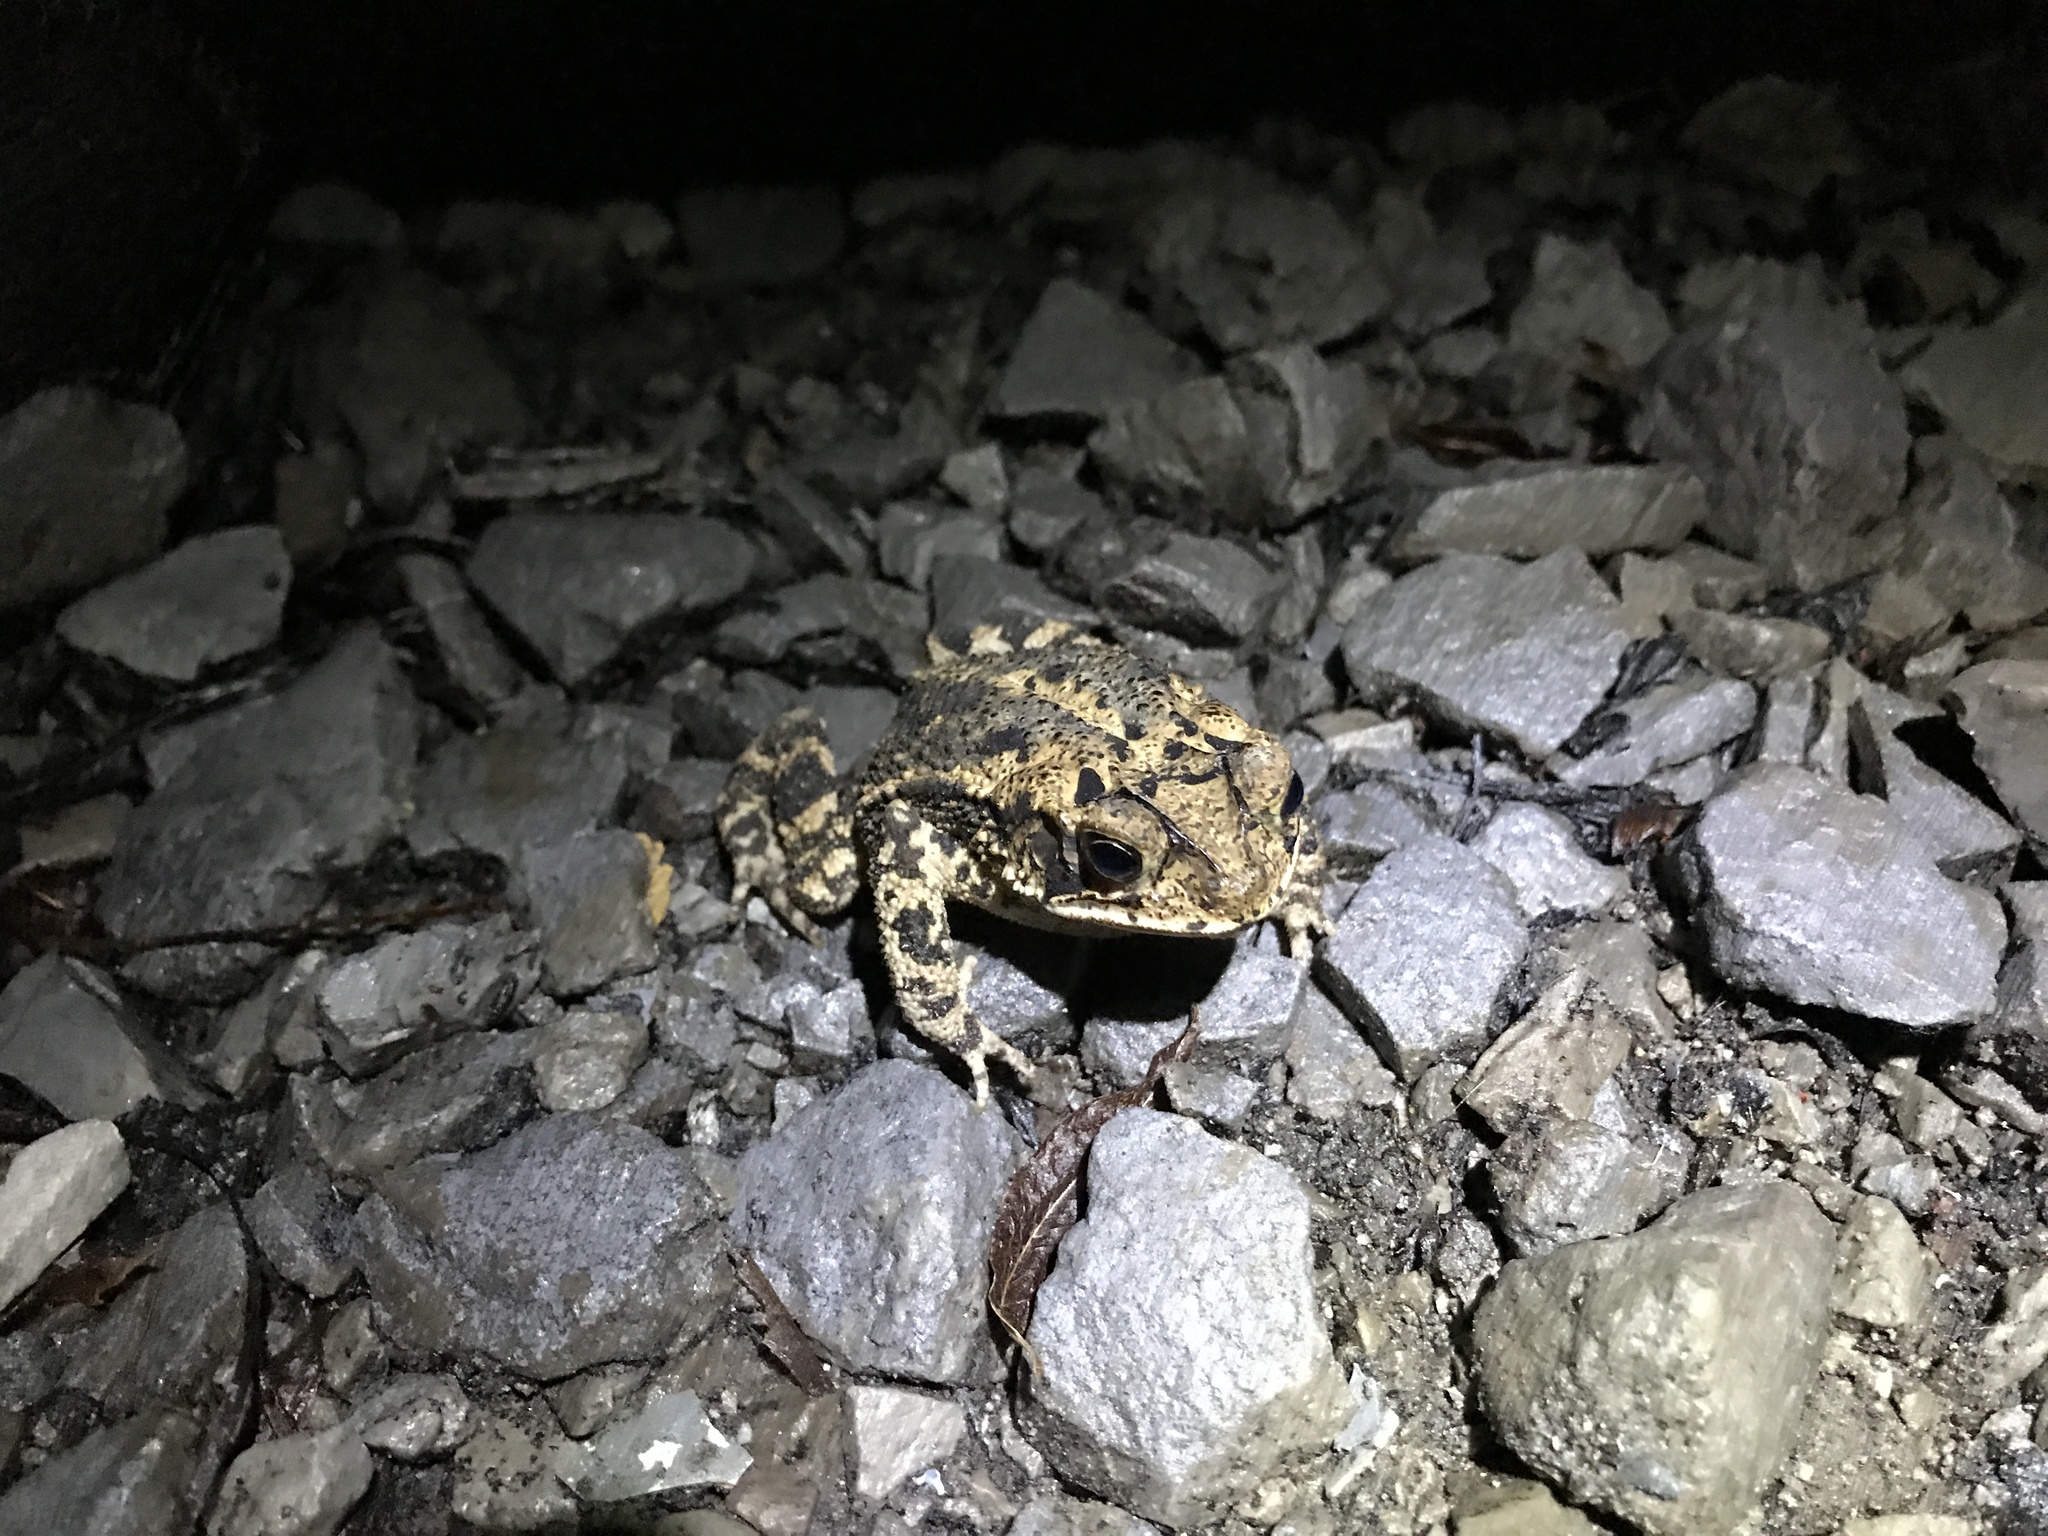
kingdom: Animalia
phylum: Chordata
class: Amphibia
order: Anura
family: Bufonidae
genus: Incilius
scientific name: Incilius nebulifer
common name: Gulf coast toad
